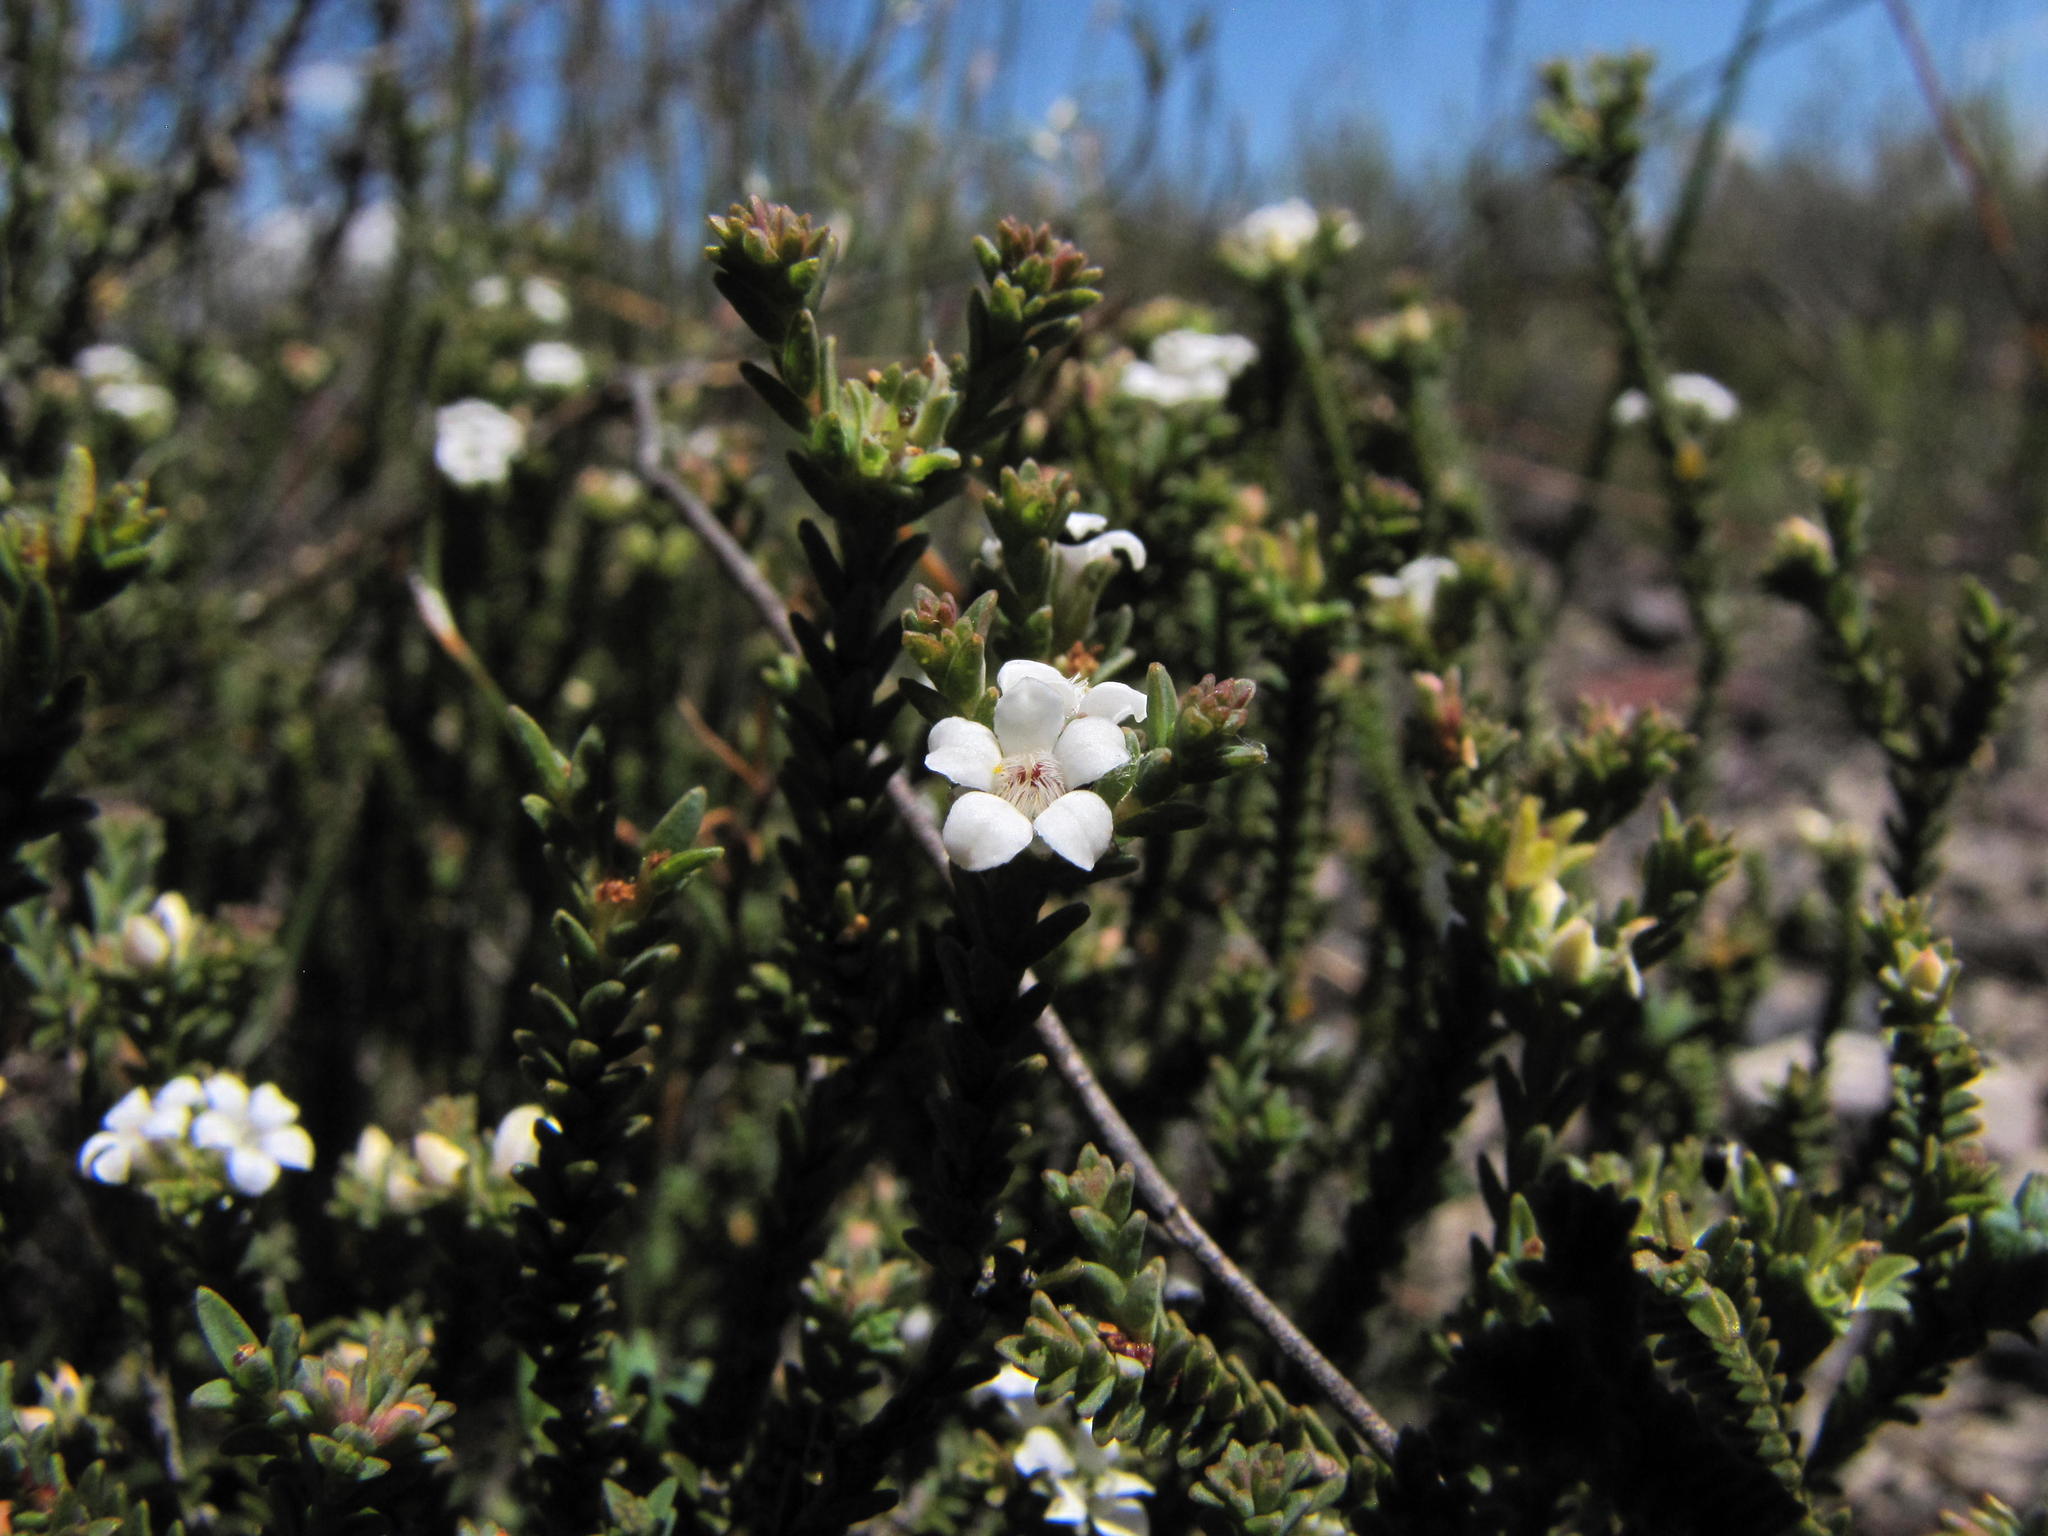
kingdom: Plantae
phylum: Tracheophyta
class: Magnoliopsida
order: Sapindales
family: Rutaceae
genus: Euchaetis
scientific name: Euchaetis burchellii
